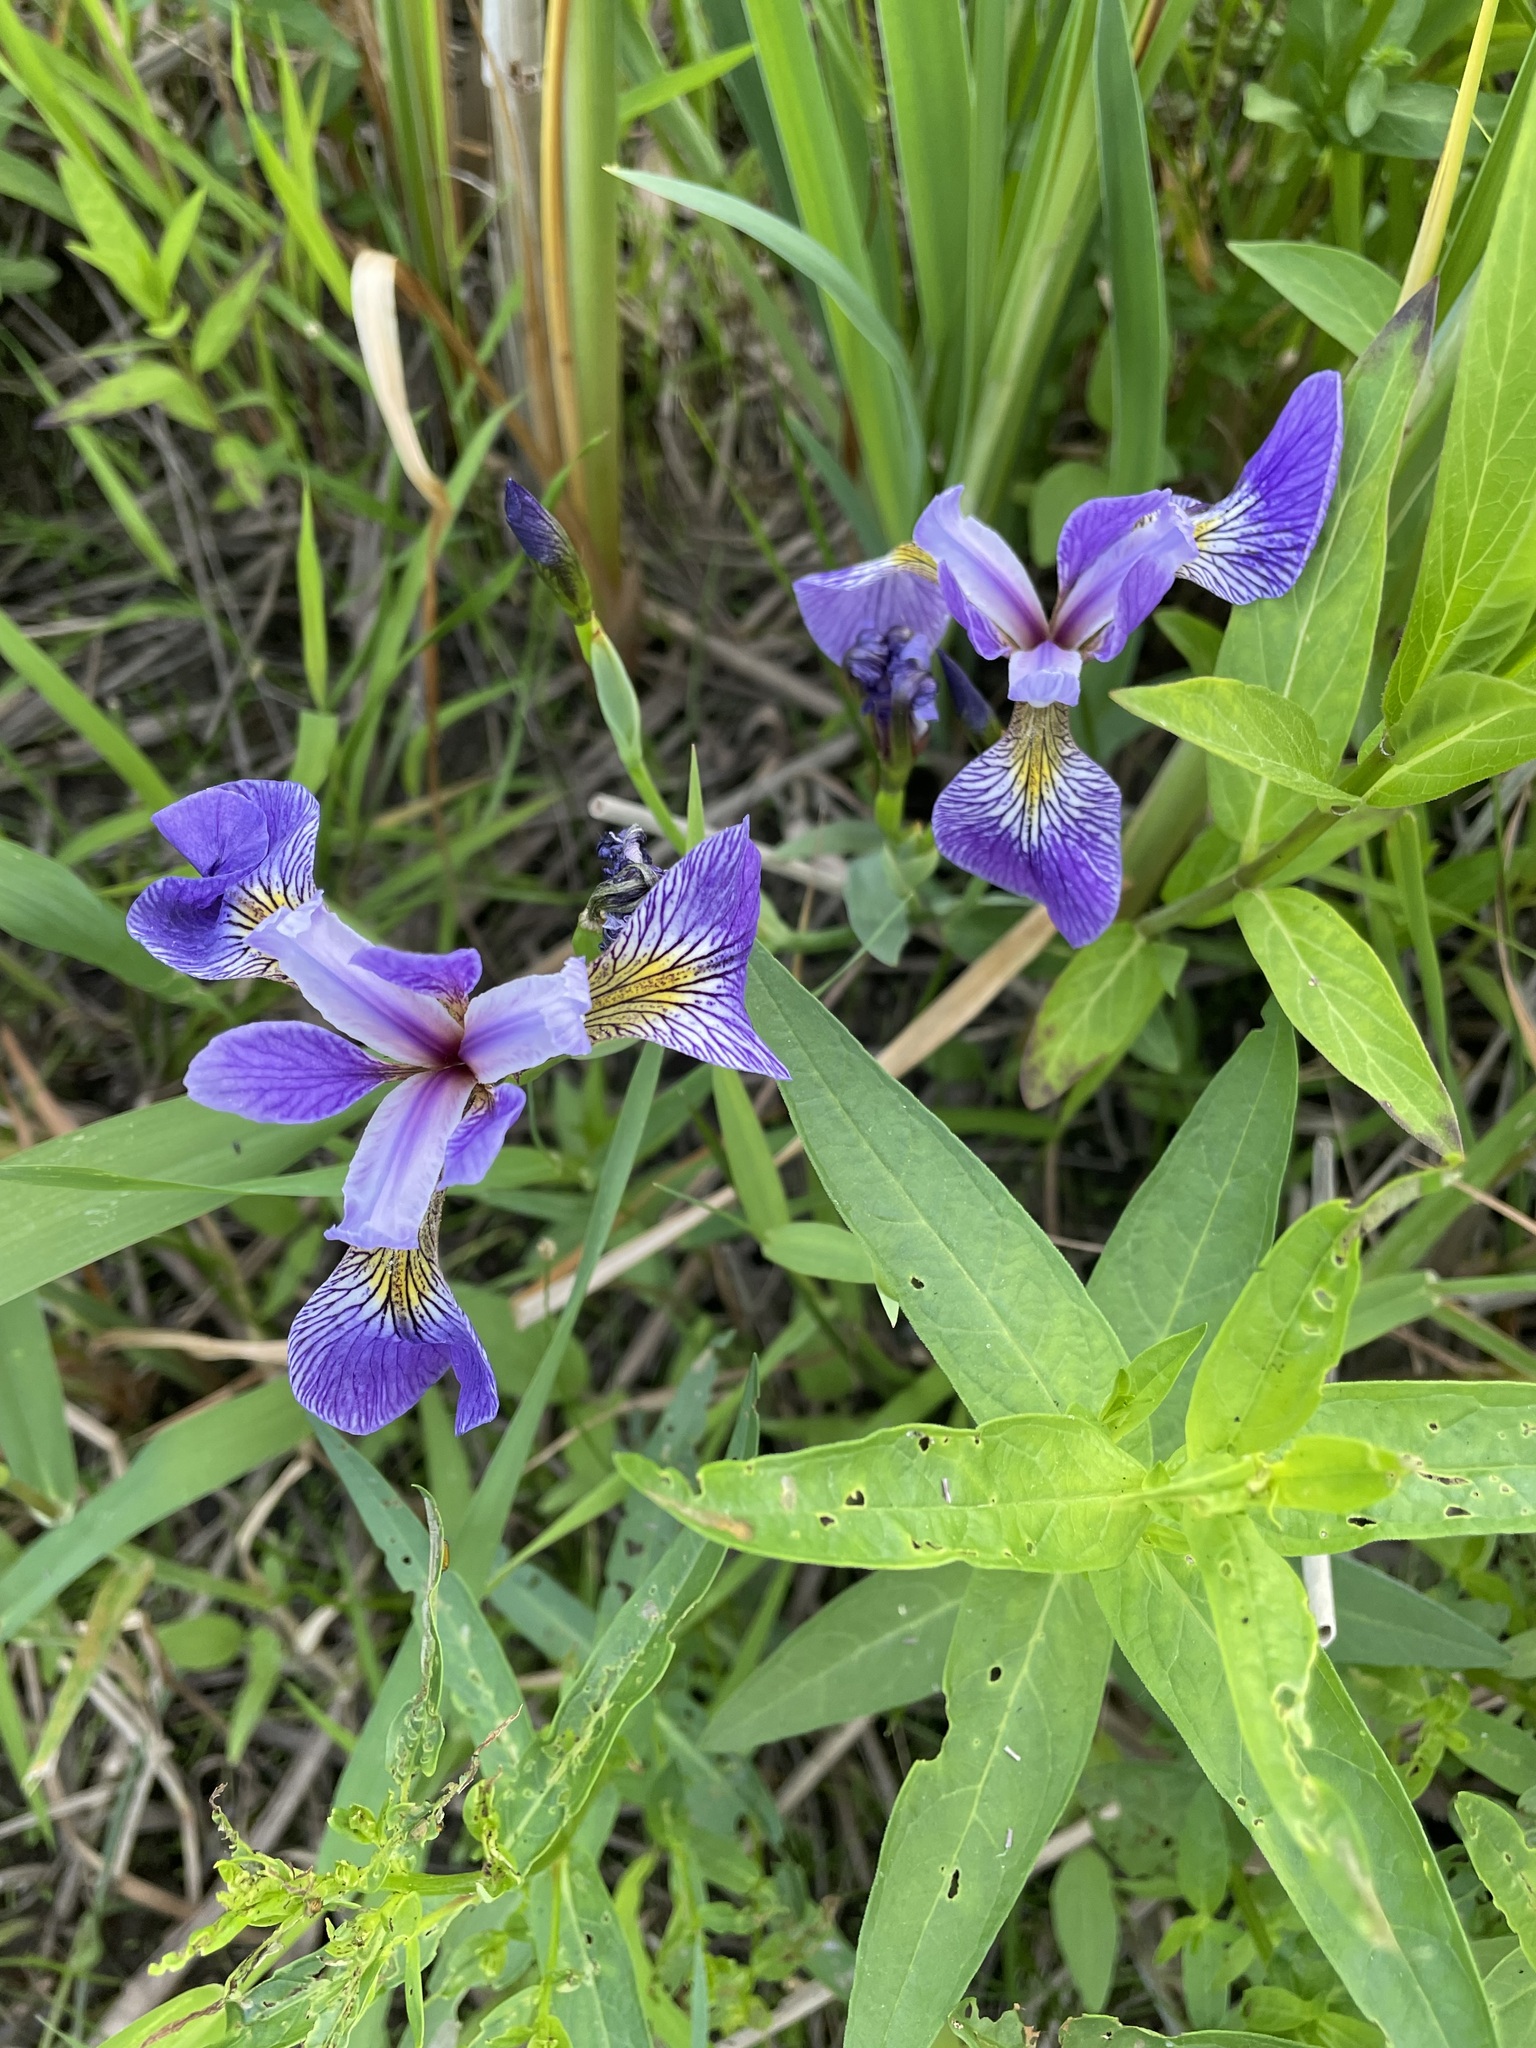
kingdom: Plantae
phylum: Tracheophyta
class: Liliopsida
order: Asparagales
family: Iridaceae
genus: Iris
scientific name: Iris versicolor
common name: Purple iris
